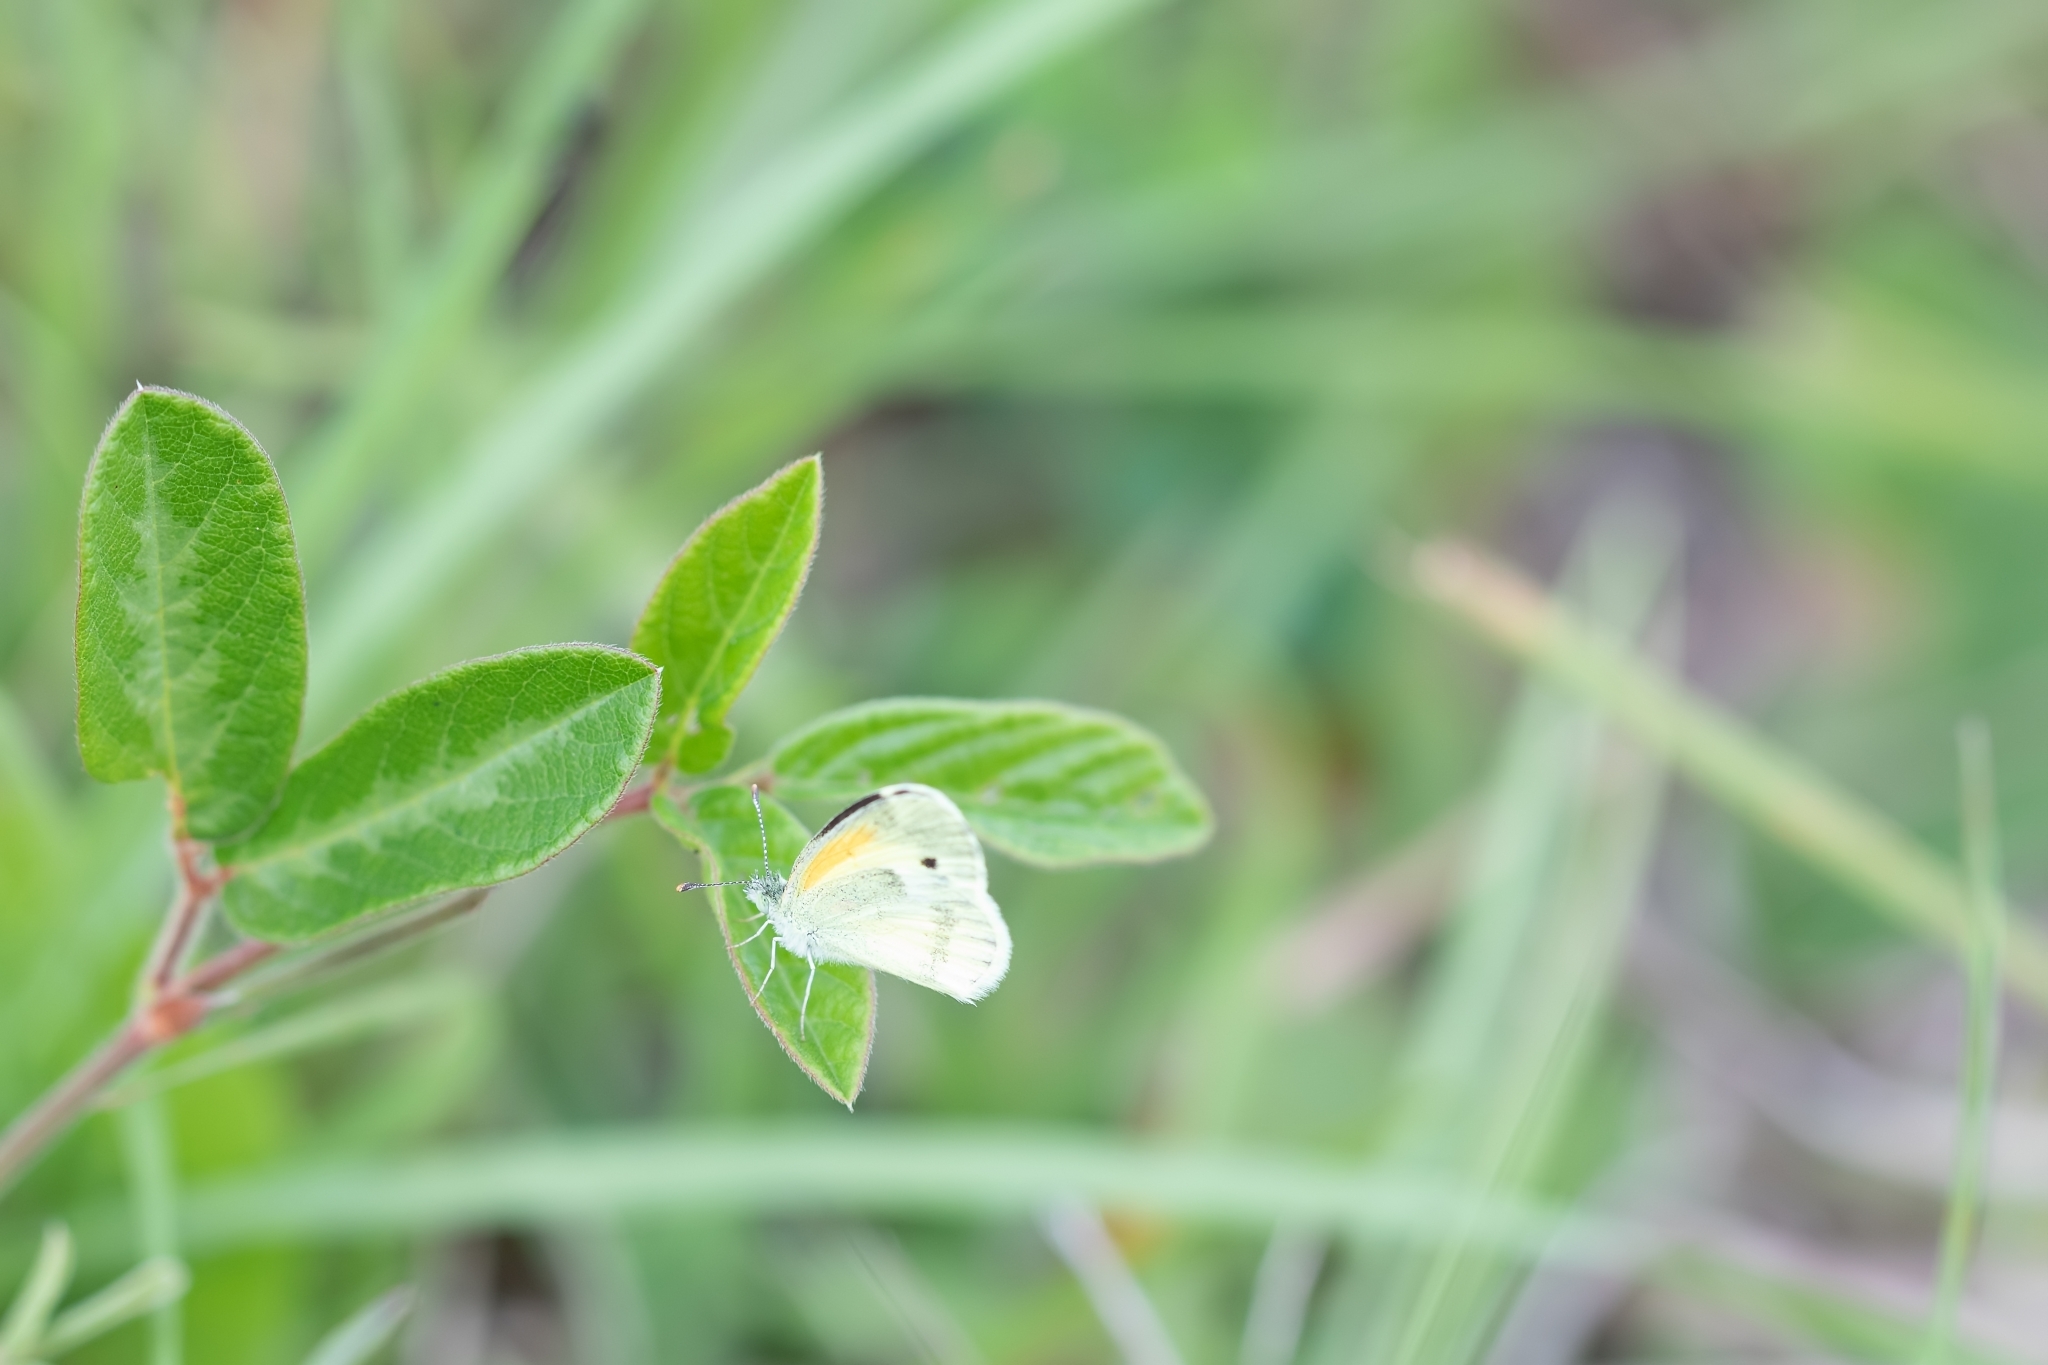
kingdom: Animalia
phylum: Arthropoda
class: Insecta
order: Lepidoptera
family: Pieridae
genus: Nathalis
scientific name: Nathalis iole
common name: Dainty sulphur
